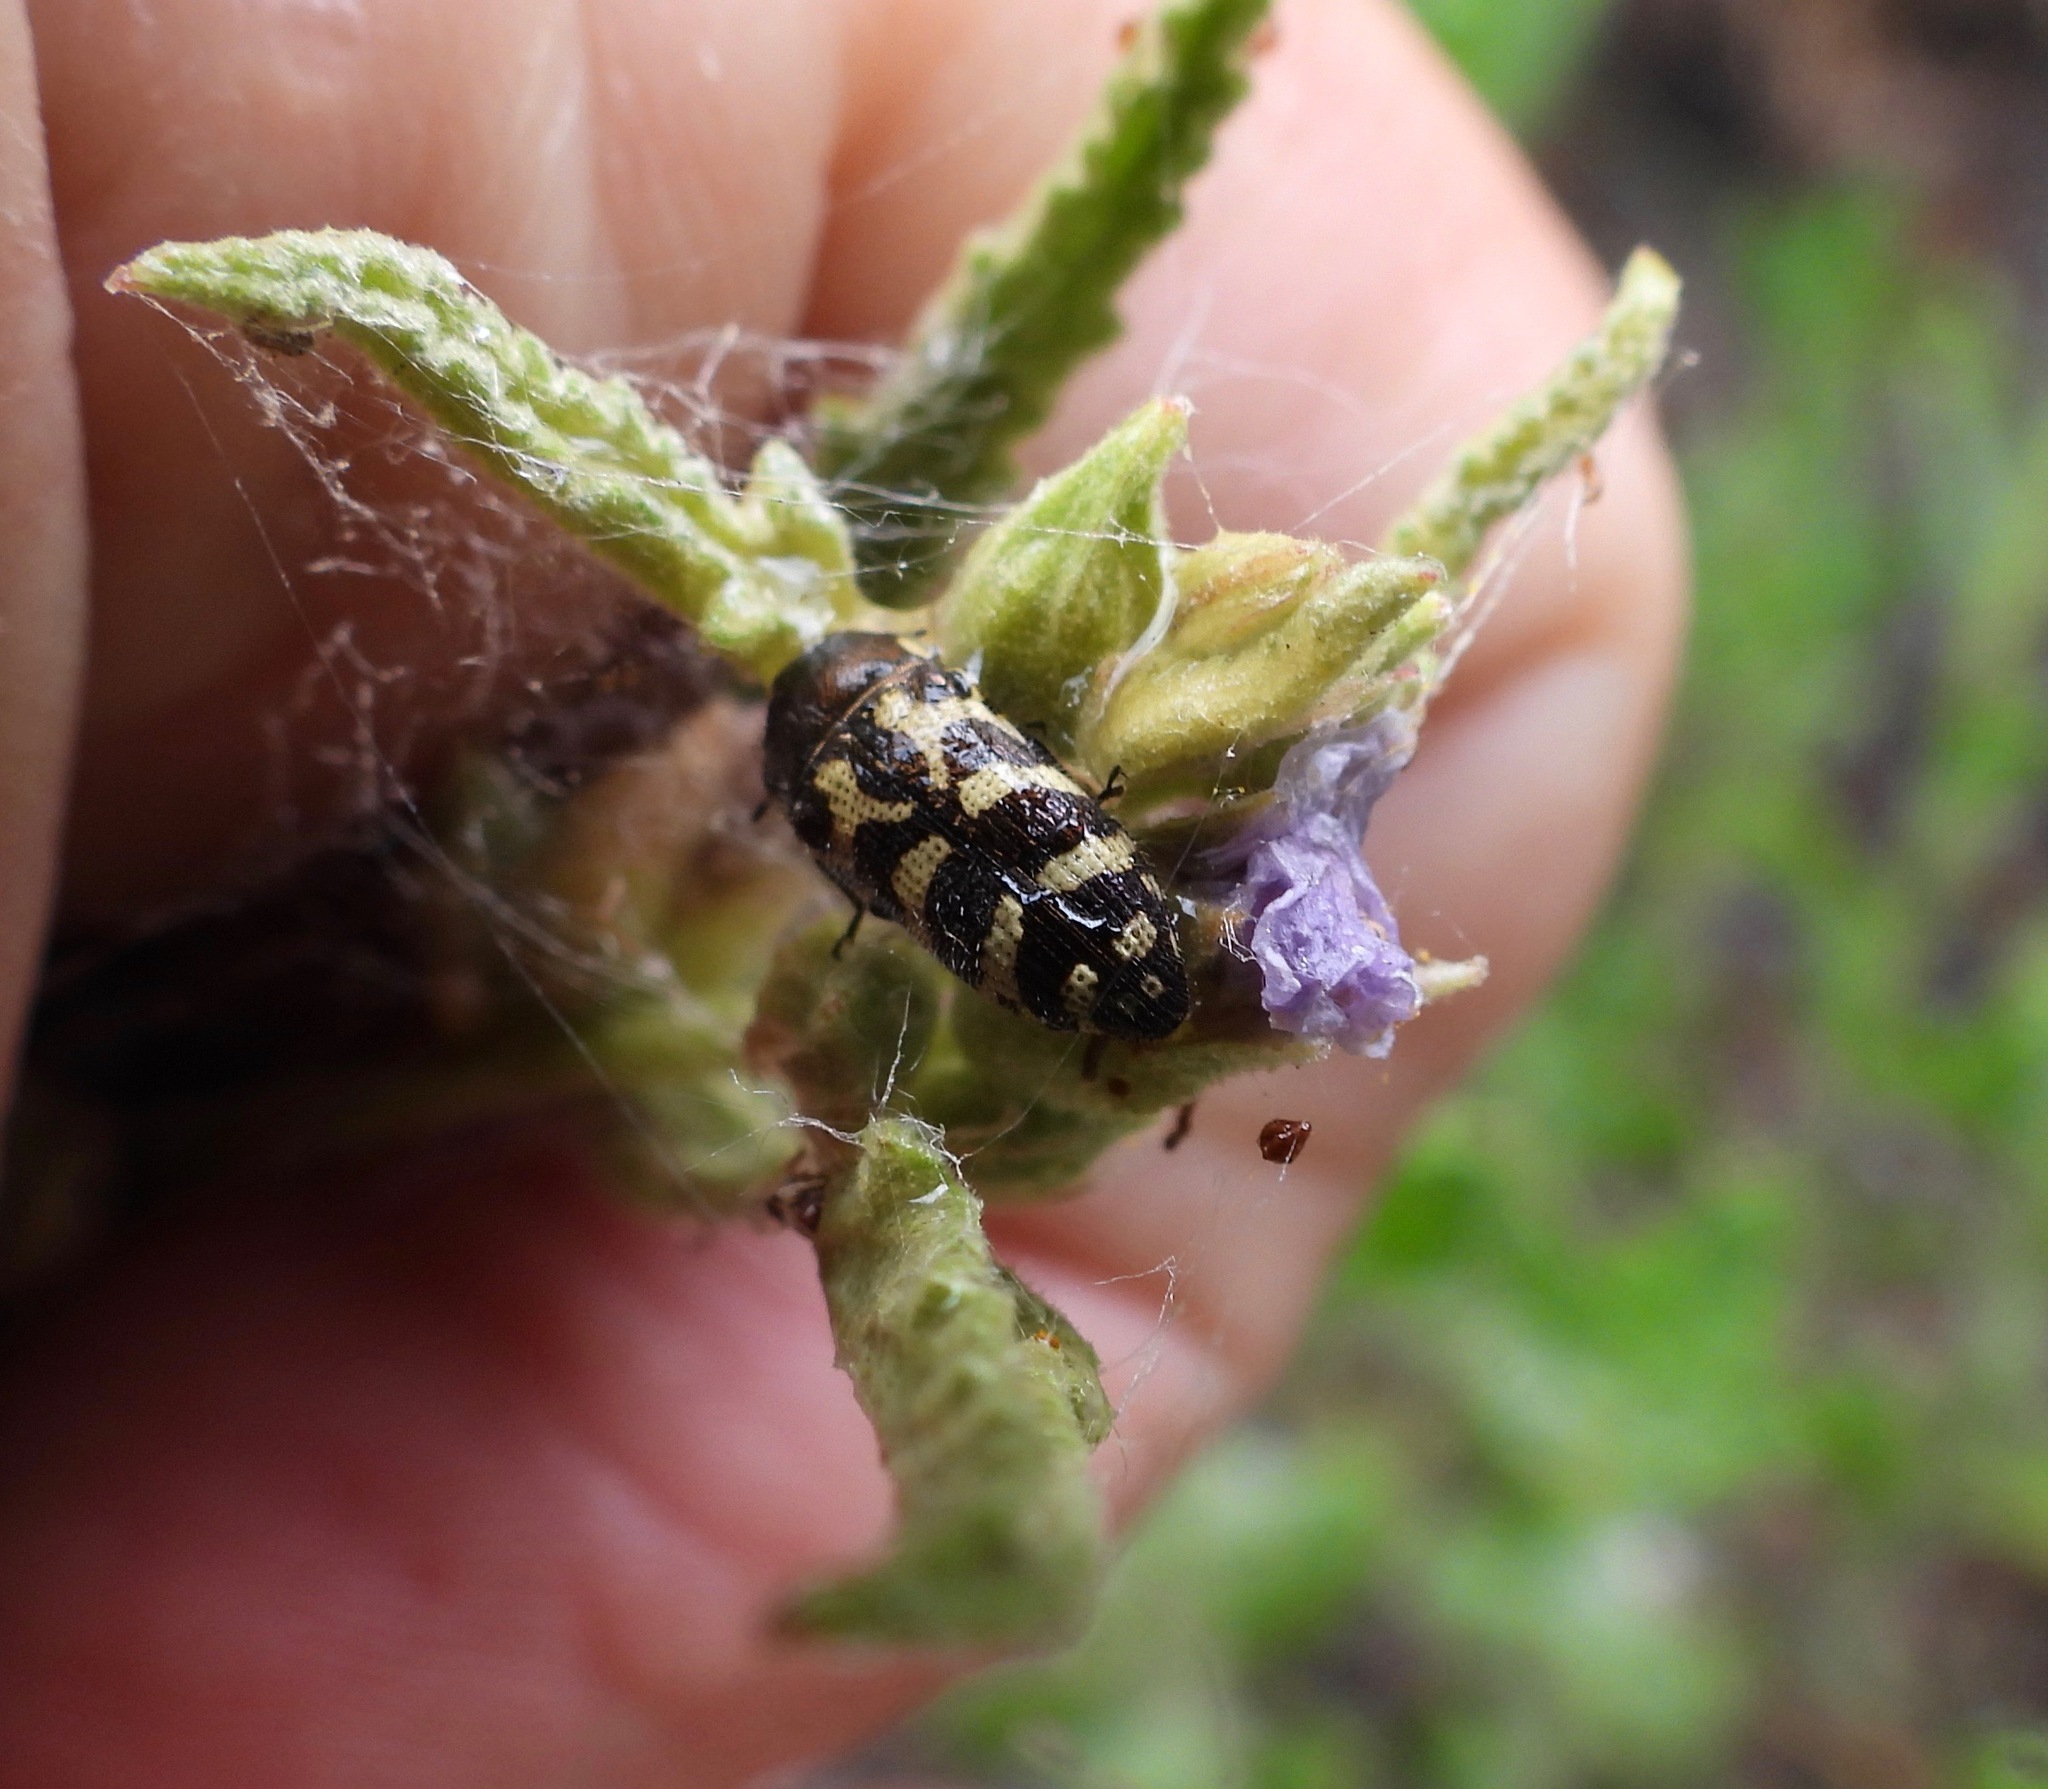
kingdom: Animalia
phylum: Arthropoda
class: Insecta
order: Coleoptera
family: Buprestidae
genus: Acmaeodera
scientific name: Acmaeodera mixta
